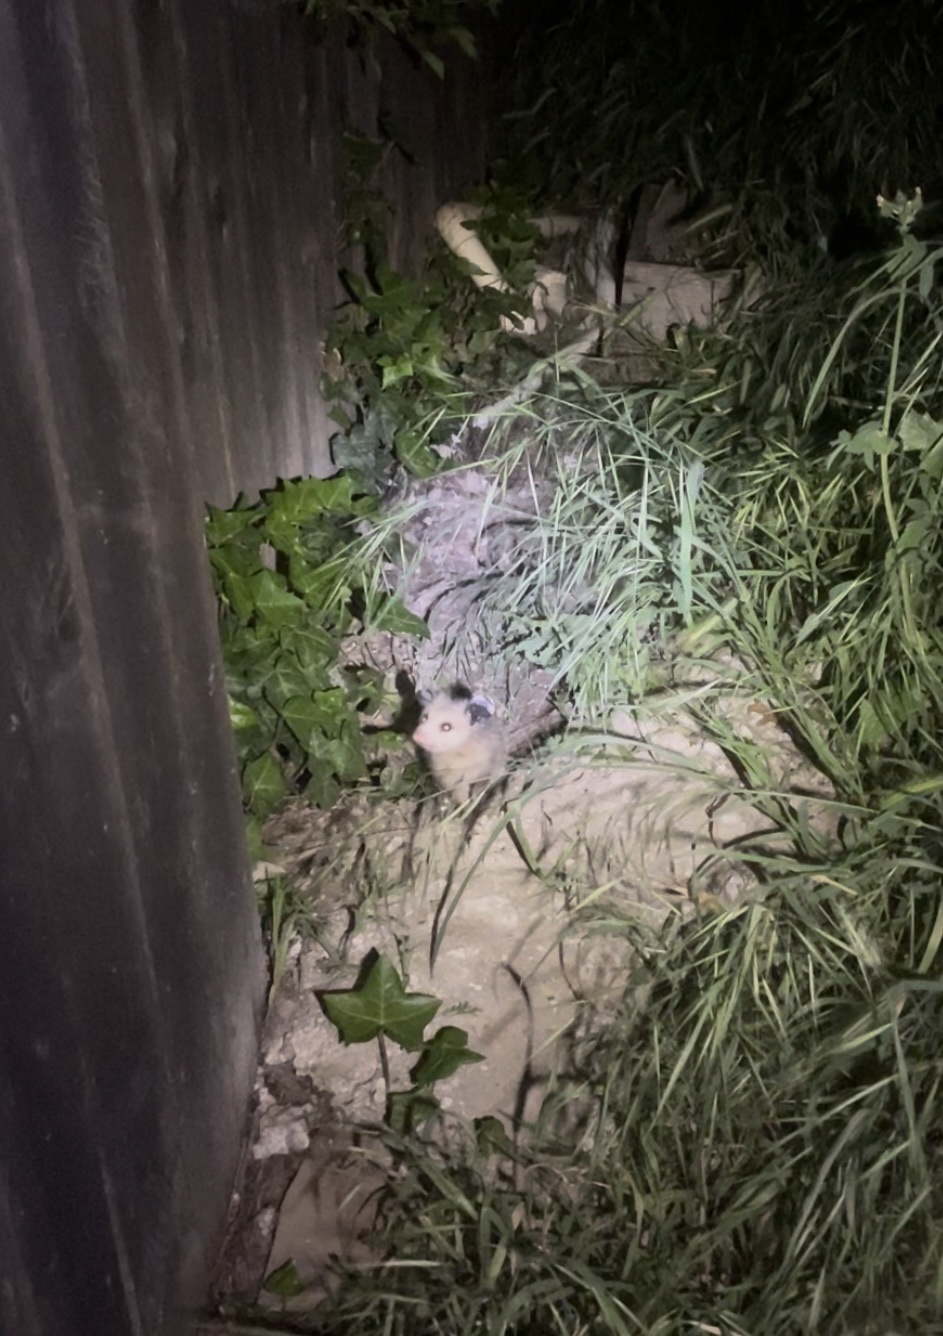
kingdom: Animalia
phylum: Chordata
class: Mammalia
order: Didelphimorphia
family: Didelphidae
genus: Didelphis
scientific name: Didelphis virginiana
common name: Virginia opossum
